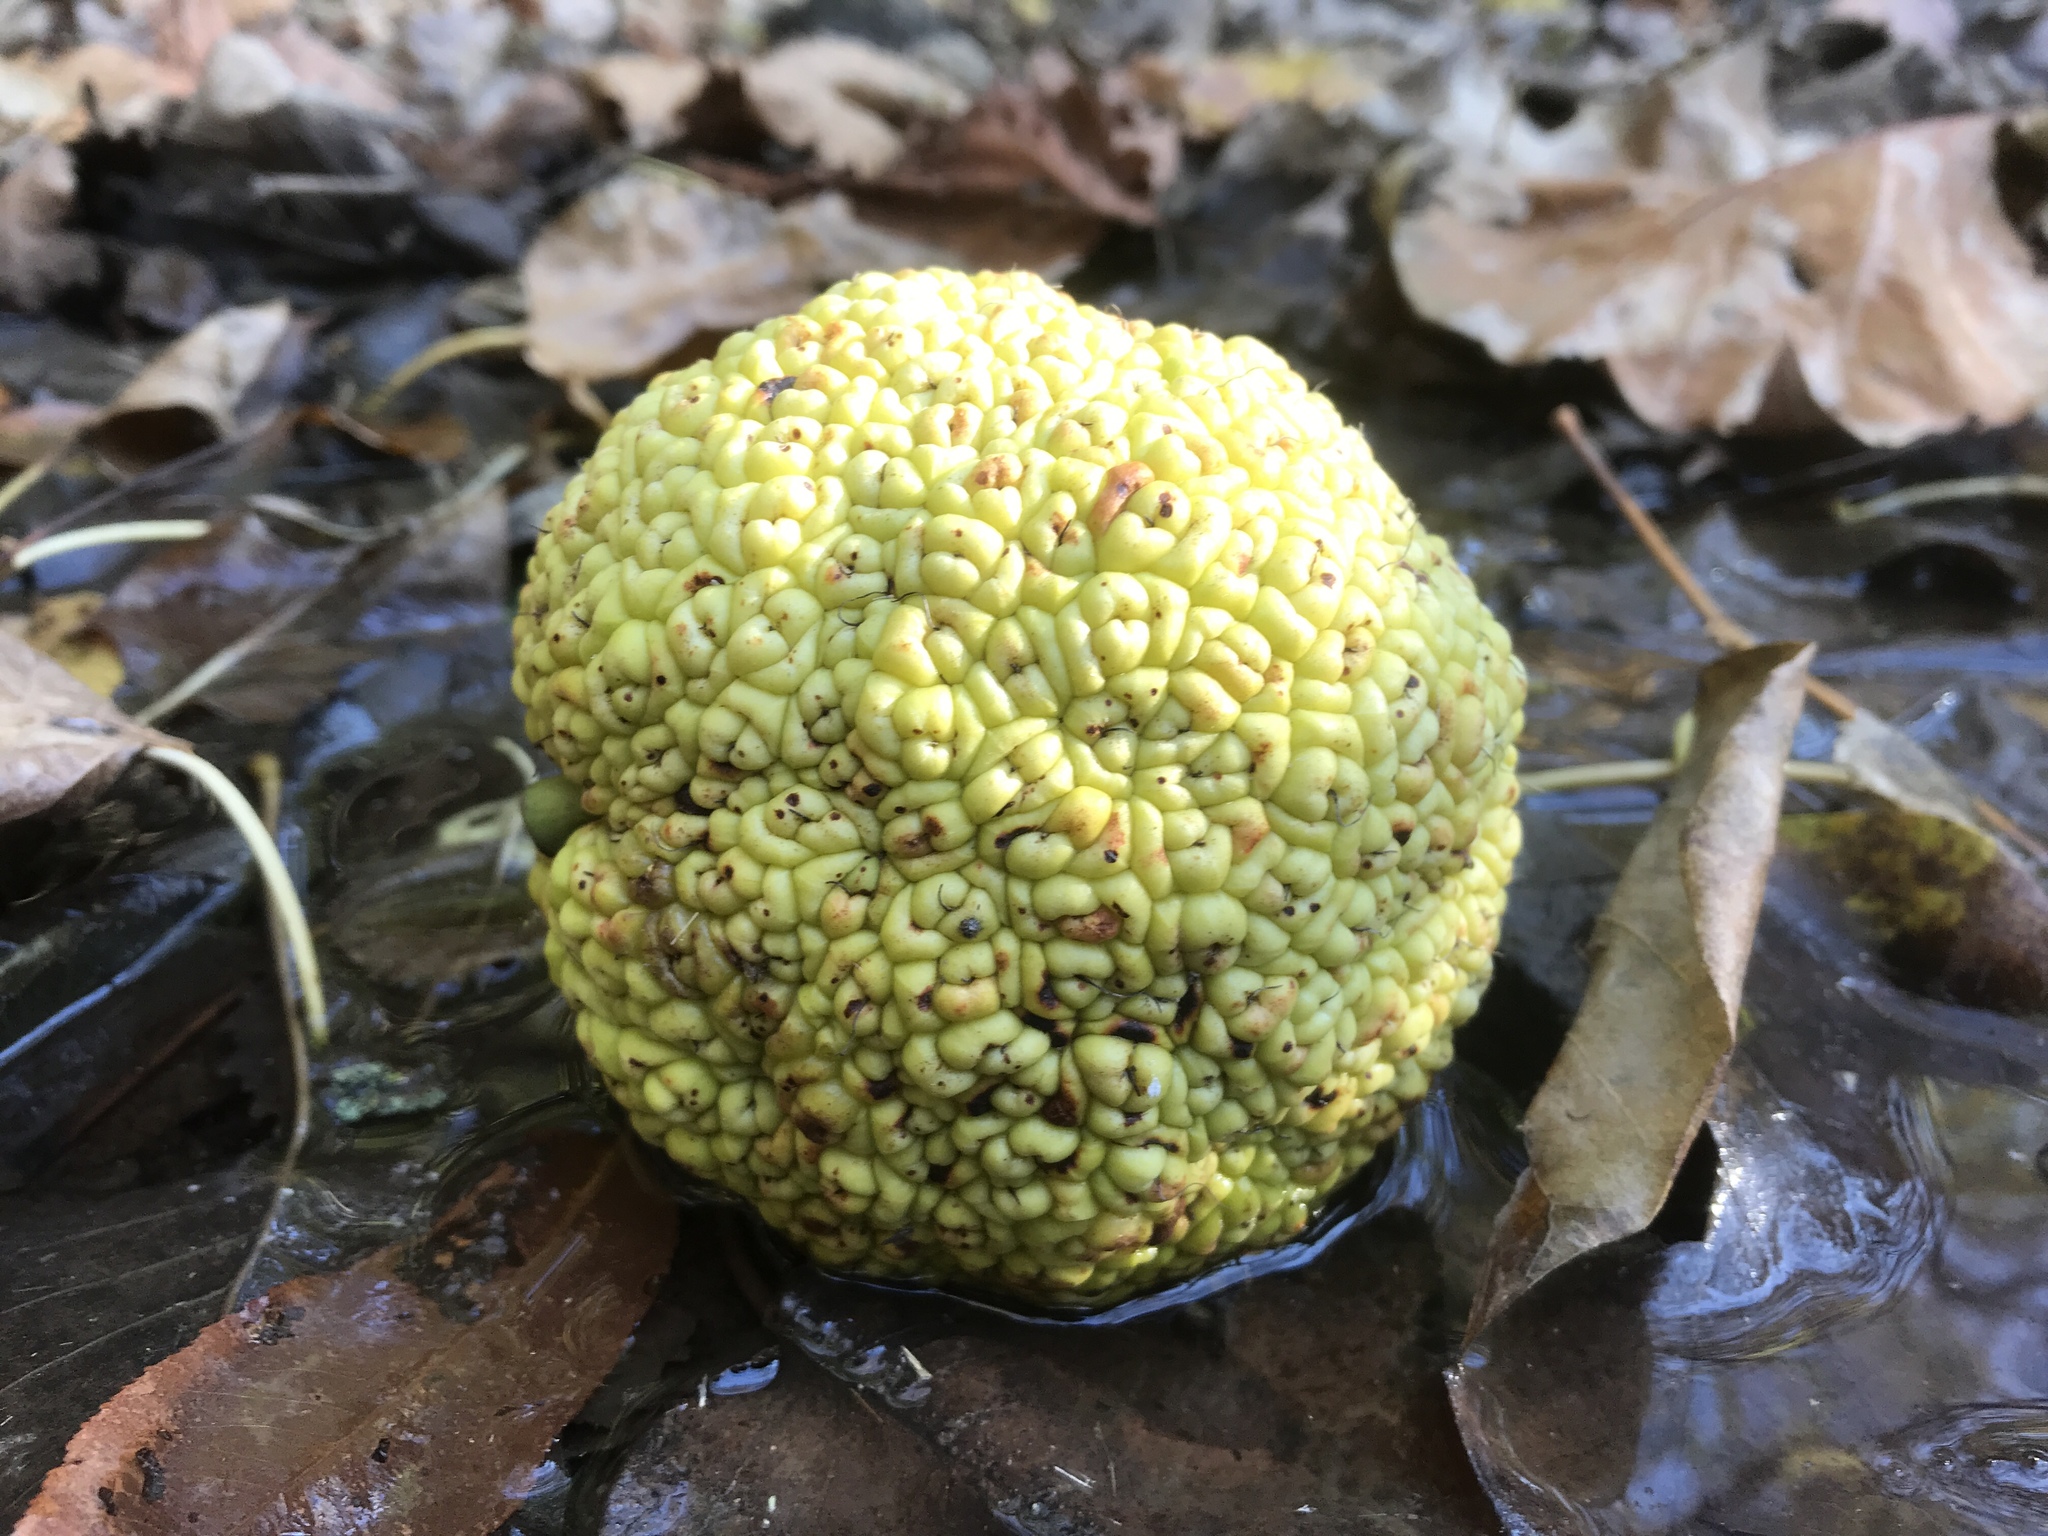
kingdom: Plantae
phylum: Tracheophyta
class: Magnoliopsida
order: Rosales
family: Moraceae
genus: Maclura
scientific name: Maclura pomifera
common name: Osage-orange
